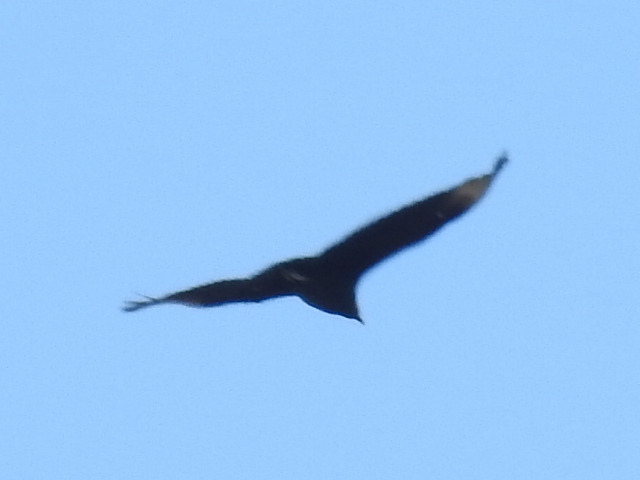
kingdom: Animalia
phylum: Chordata
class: Aves
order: Accipitriformes
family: Cathartidae
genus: Coragyps
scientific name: Coragyps atratus
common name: Black vulture
